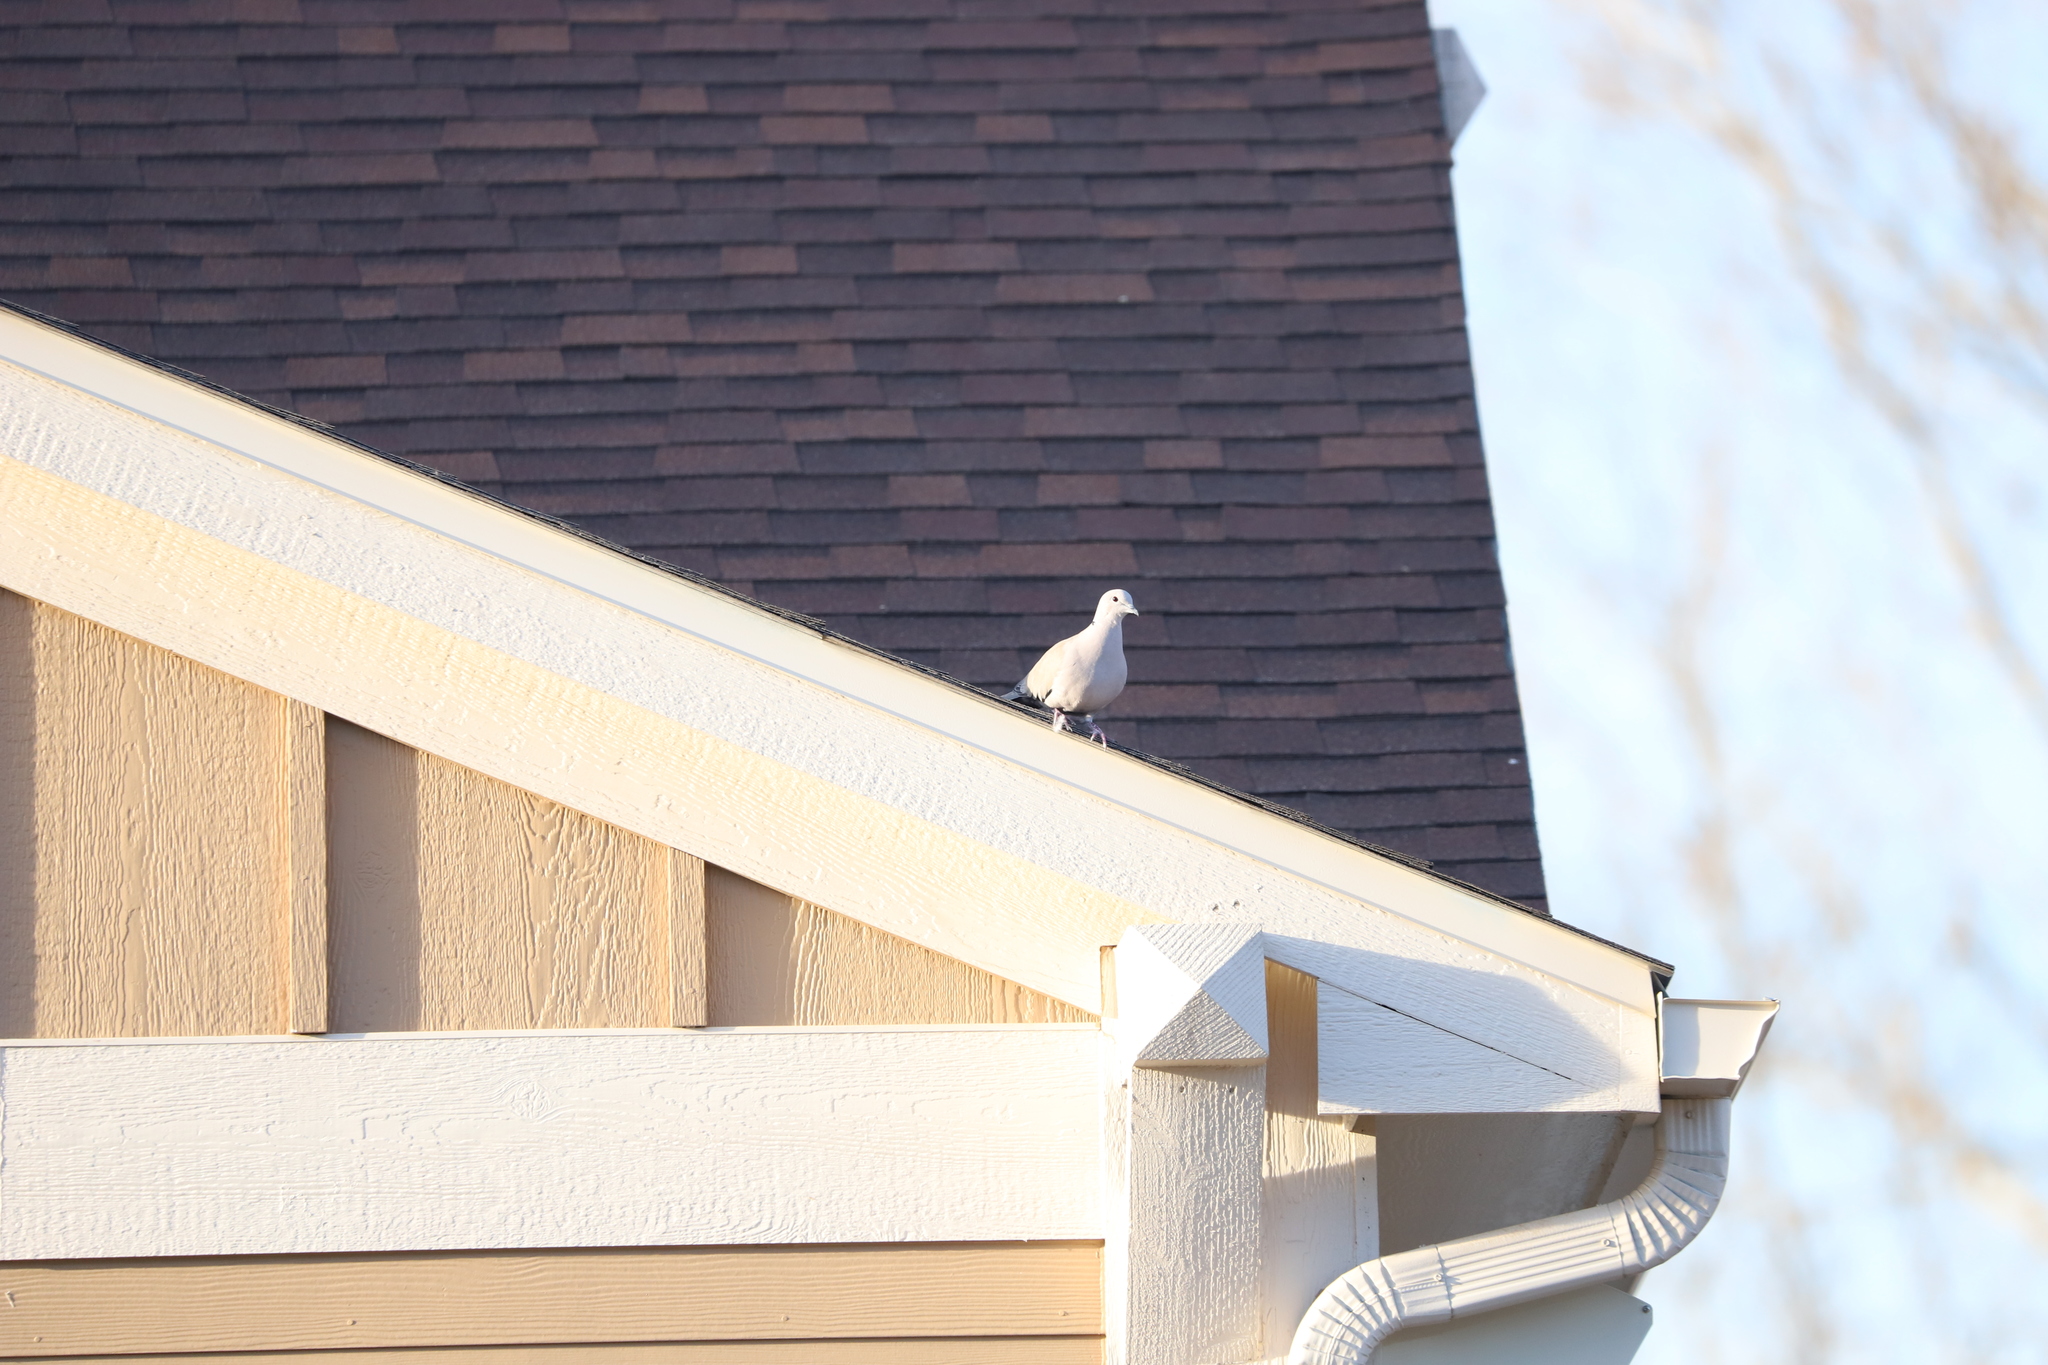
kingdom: Animalia
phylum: Chordata
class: Aves
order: Columbiformes
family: Columbidae
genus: Streptopelia
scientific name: Streptopelia decaocto
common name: Eurasian collared dove
